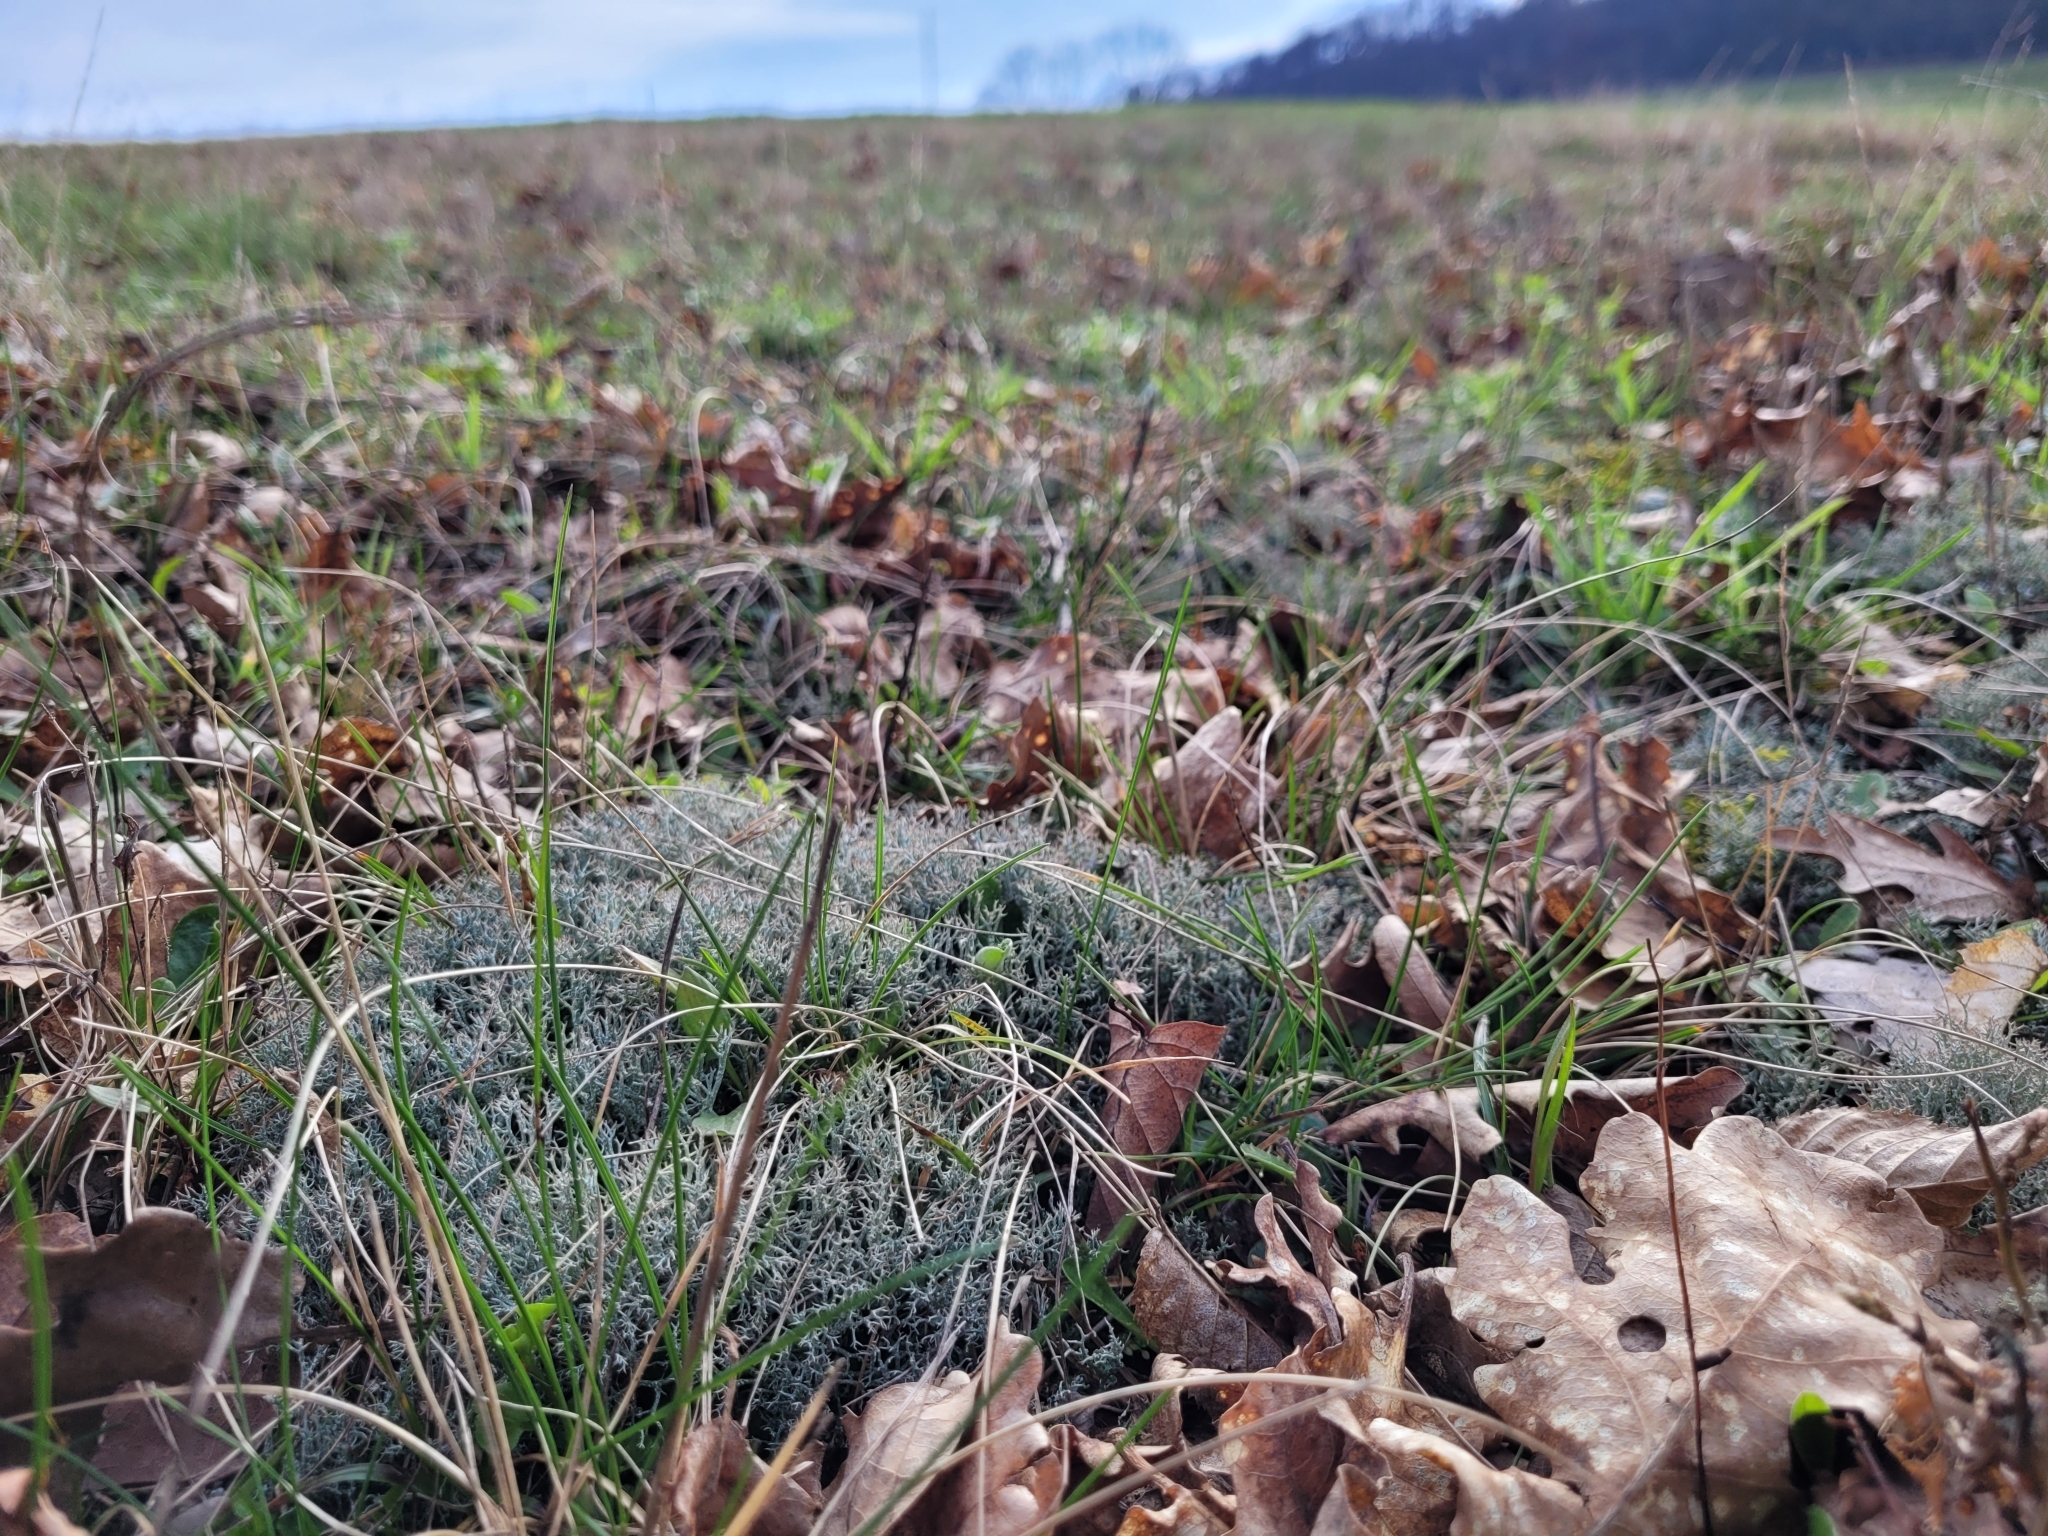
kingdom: Fungi
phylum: Ascomycota
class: Lecanoromycetes
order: Lecanorales
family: Cladoniaceae
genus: Cladonia
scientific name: Cladonia rangiformis
